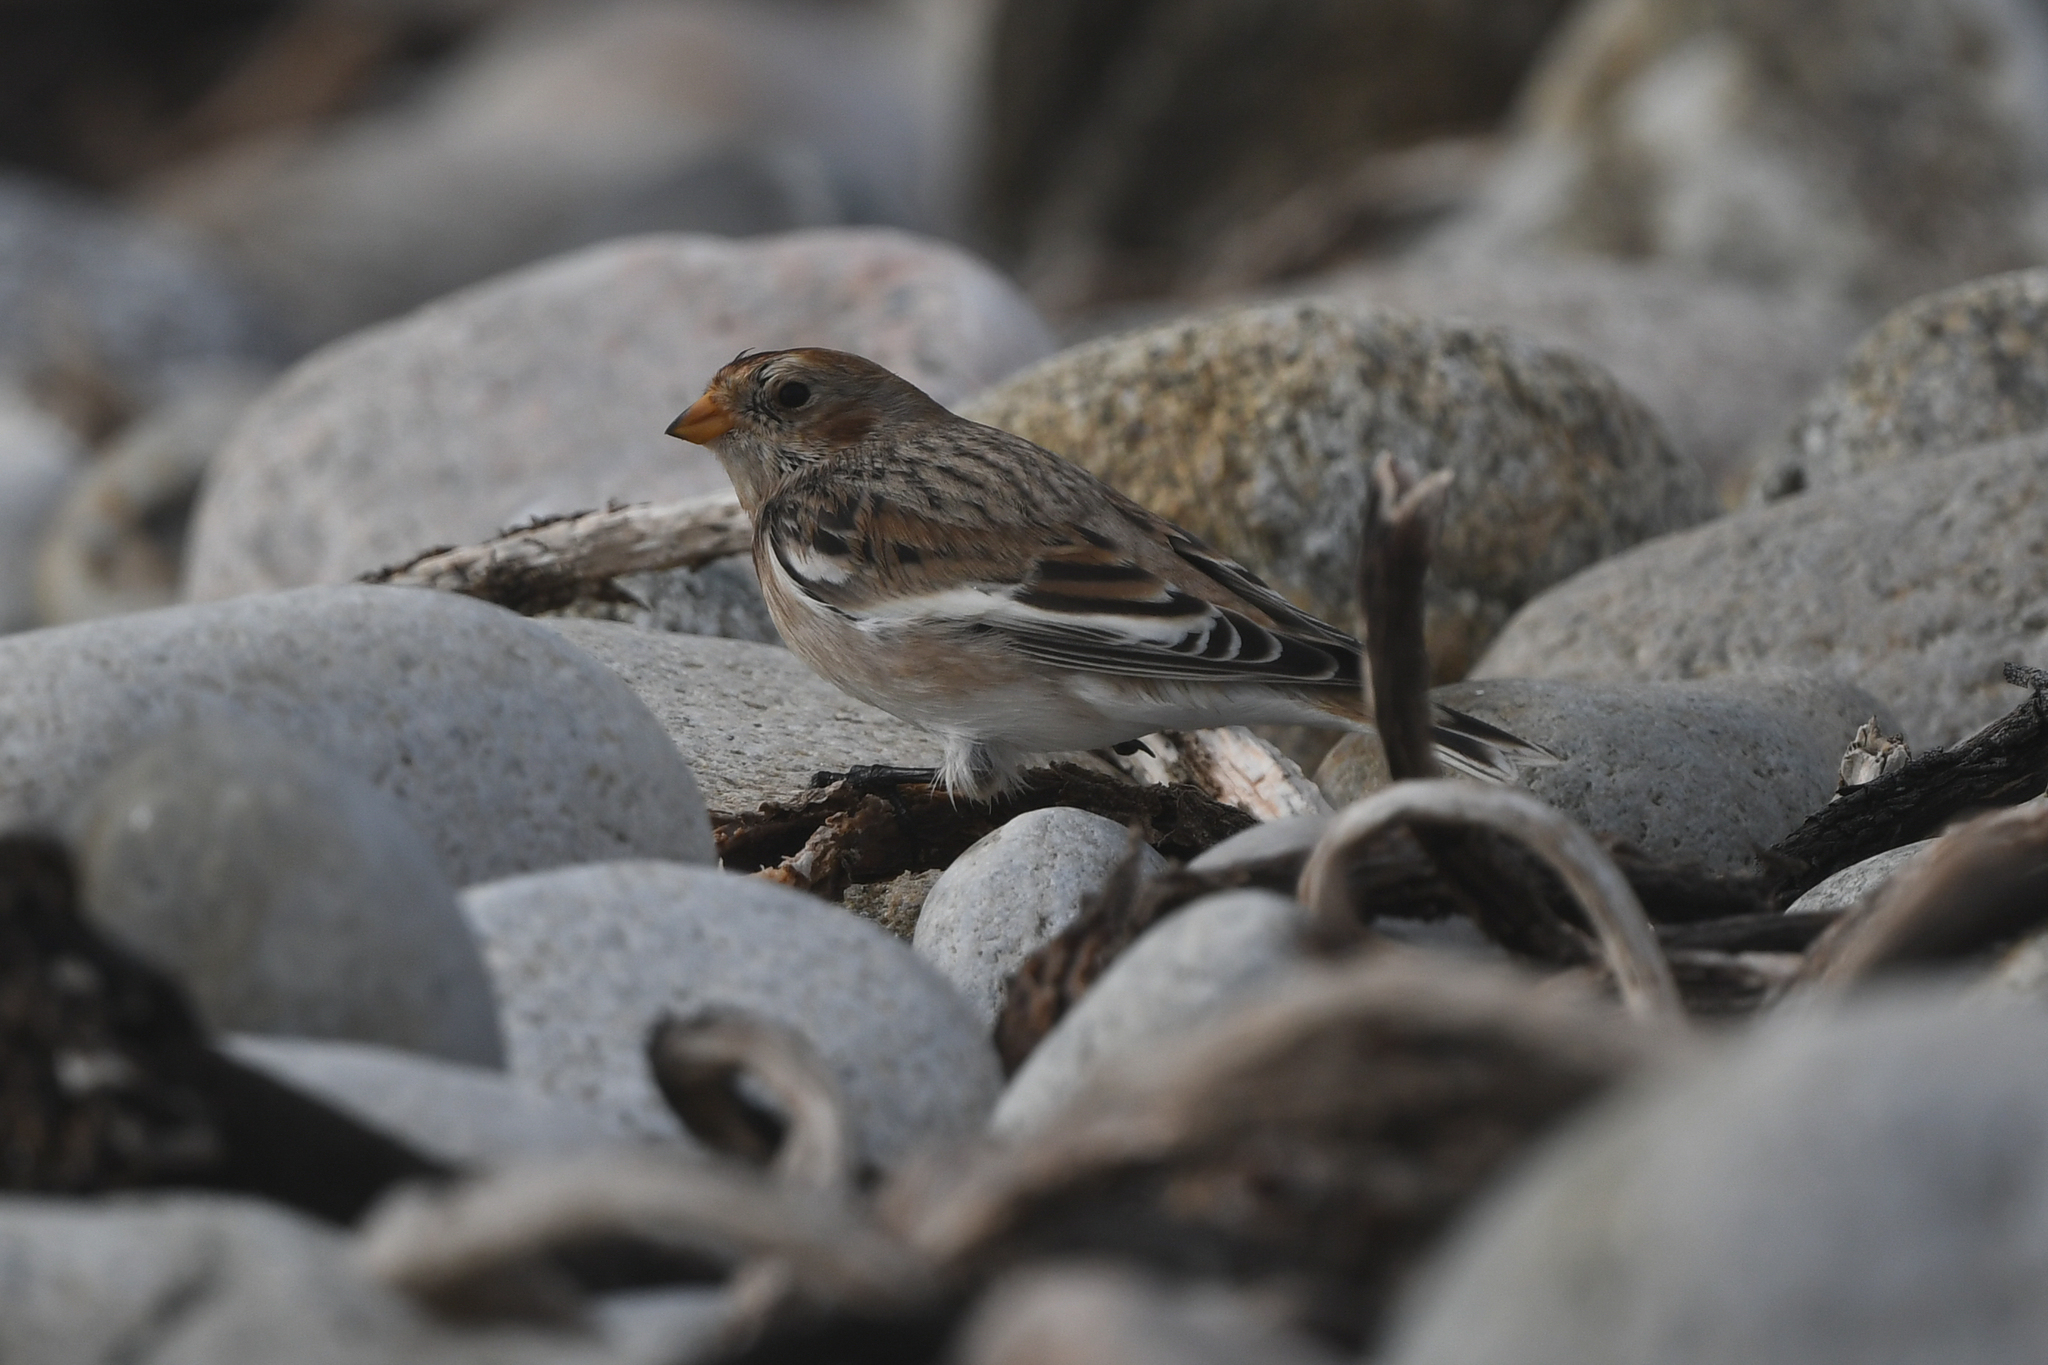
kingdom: Animalia
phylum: Chordata
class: Aves
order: Passeriformes
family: Calcariidae
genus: Plectrophenax
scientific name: Plectrophenax nivalis
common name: Snow bunting
